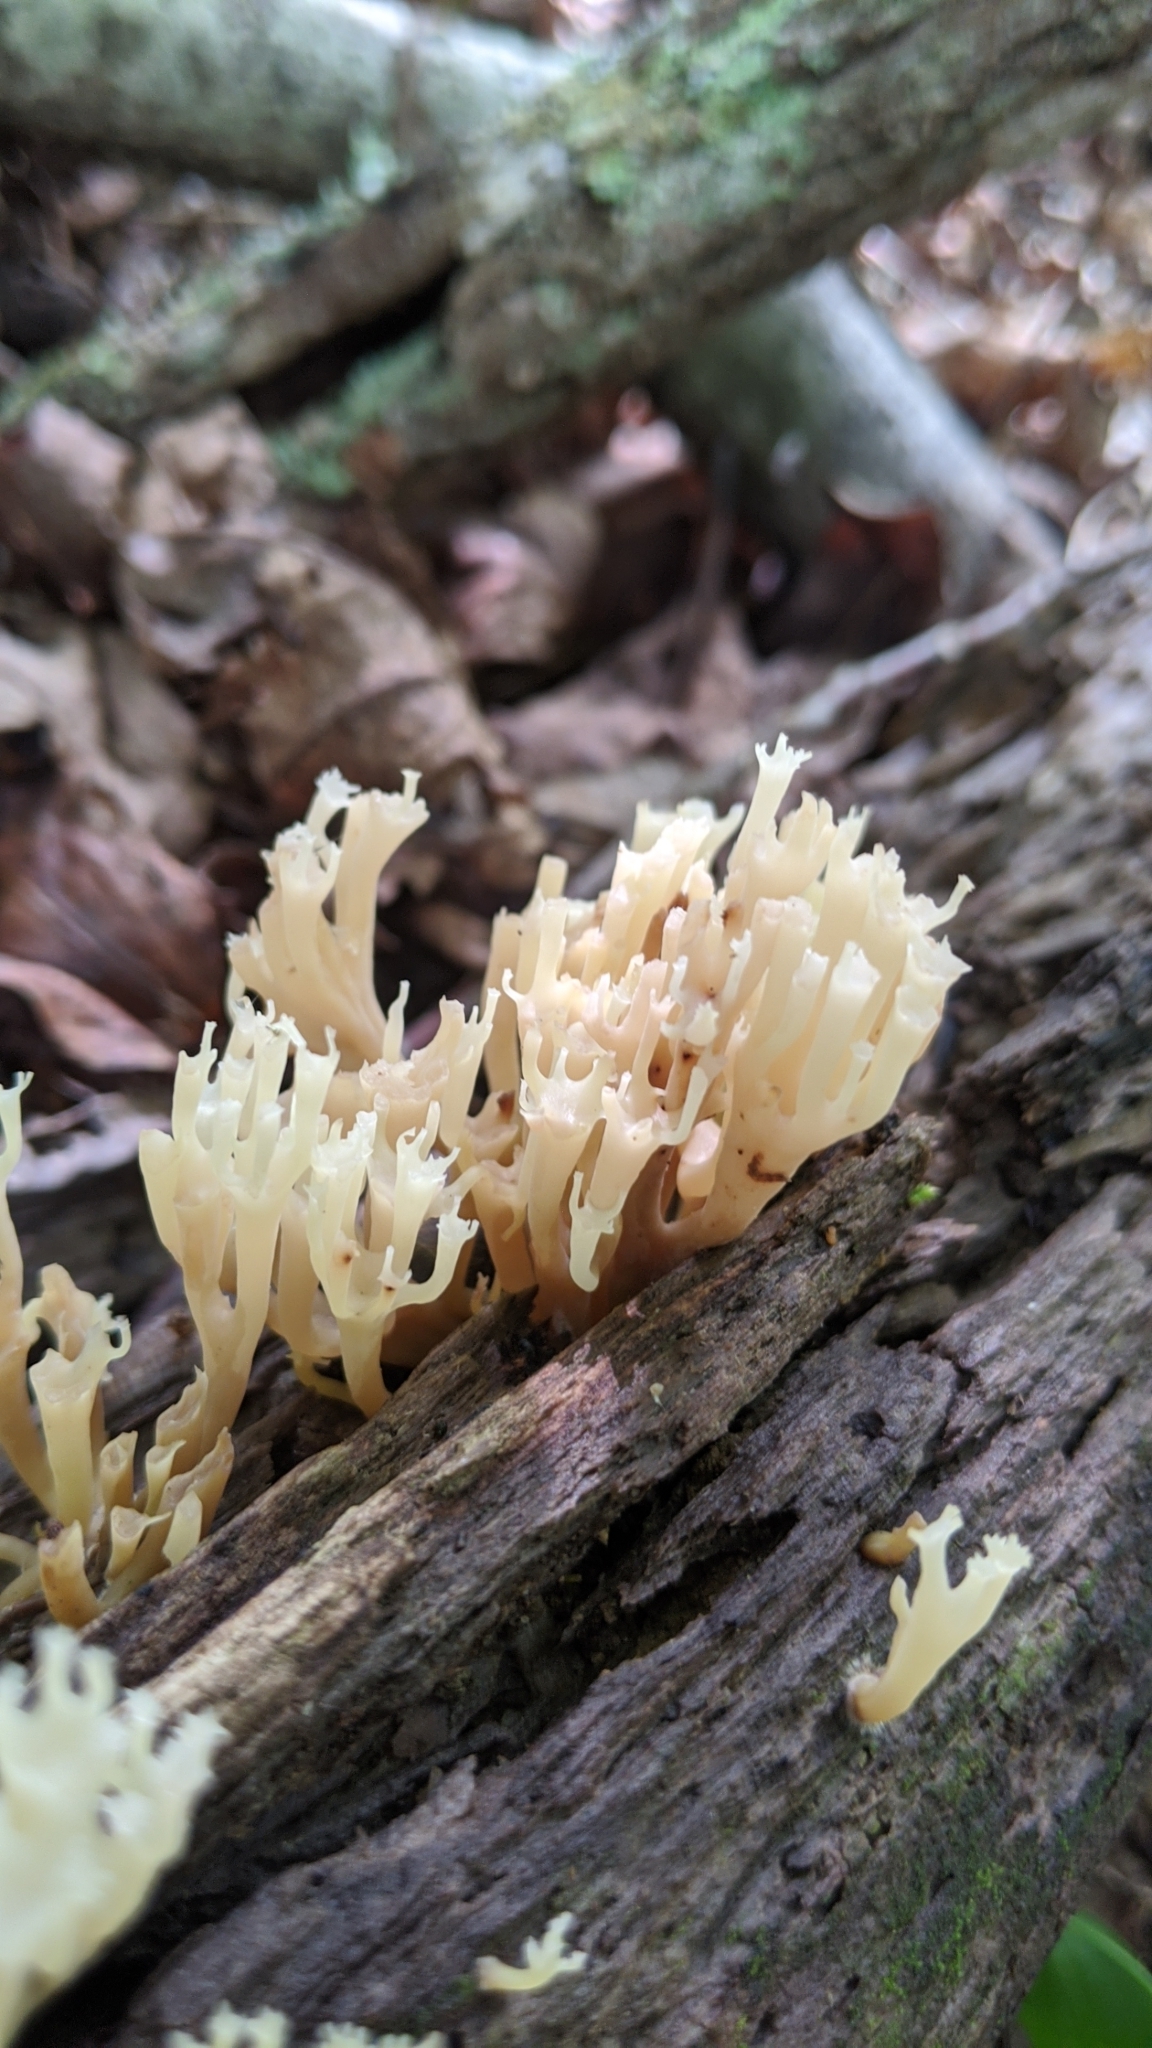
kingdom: Fungi
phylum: Basidiomycota
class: Agaricomycetes
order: Russulales
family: Auriscalpiaceae
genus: Artomyces
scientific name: Artomyces pyxidatus
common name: Crown-tipped coral fungus
